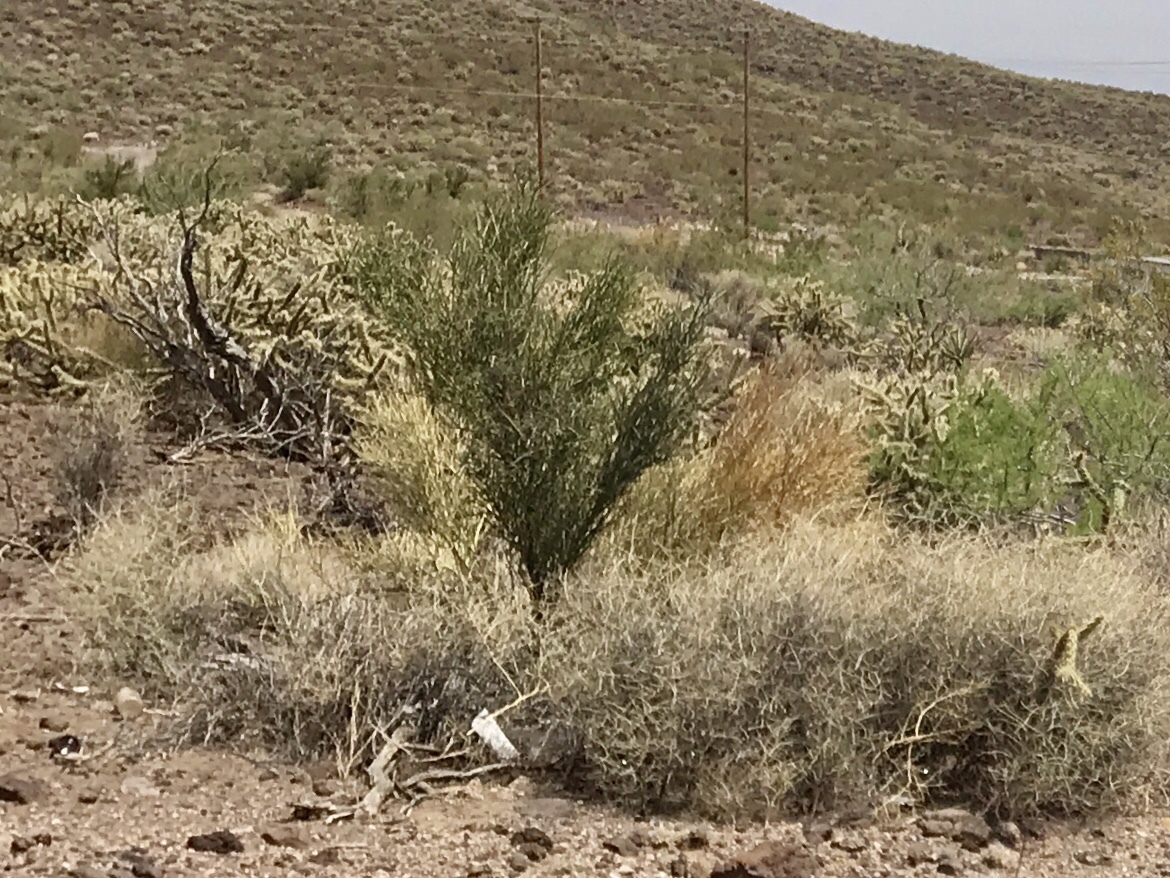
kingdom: Plantae
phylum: Tracheophyta
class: Magnoliopsida
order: Celastrales
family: Celastraceae
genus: Canotia
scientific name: Canotia holacantha
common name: Crucifixion thorns
